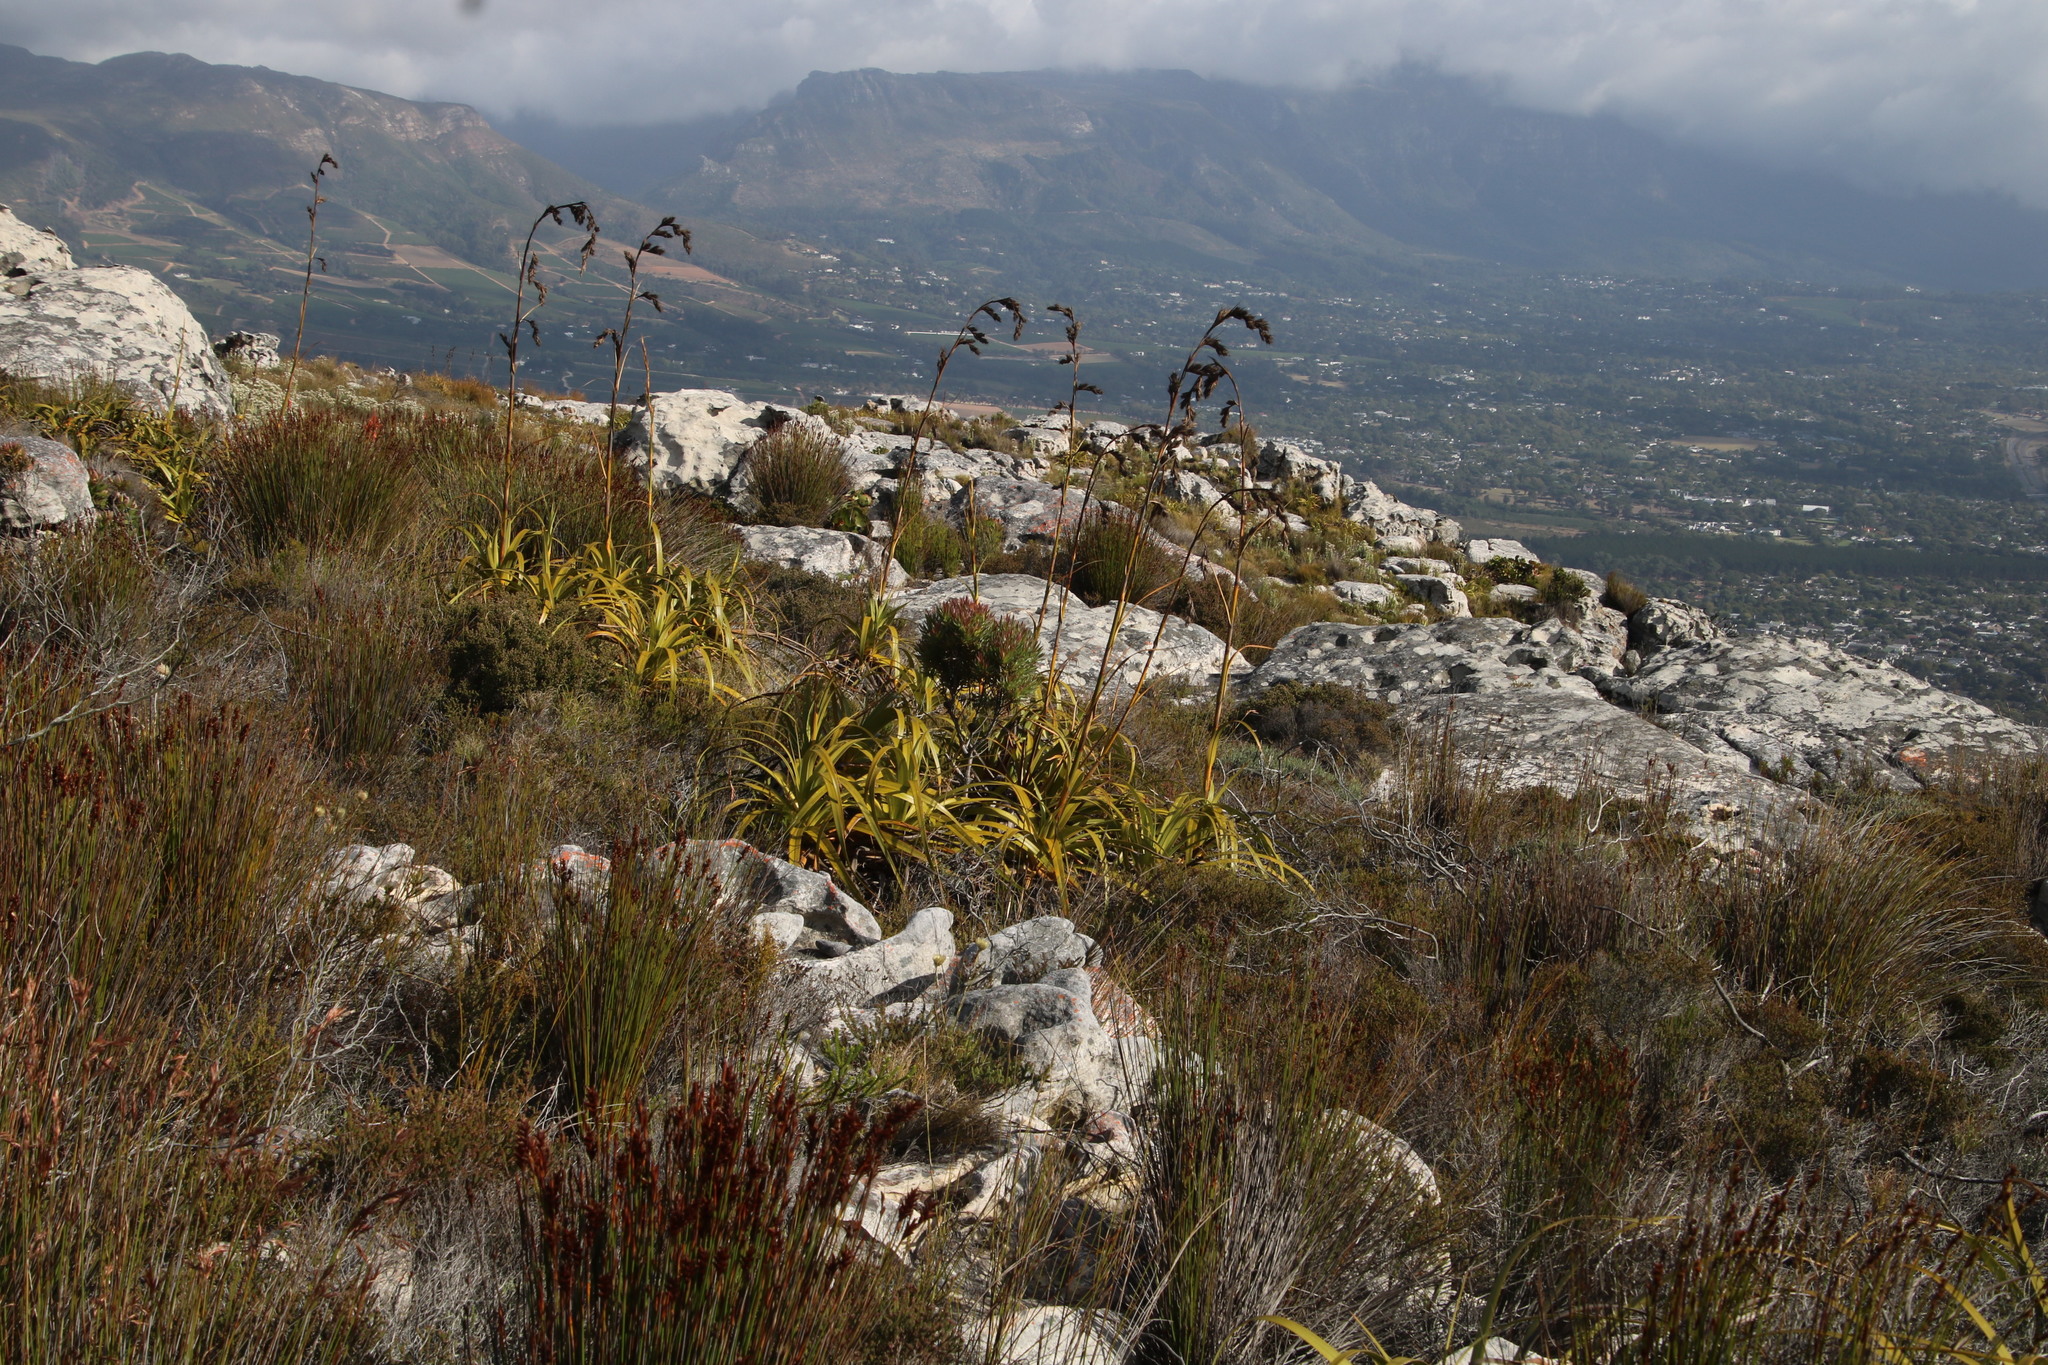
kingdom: Plantae
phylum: Tracheophyta
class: Liliopsida
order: Poales
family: Cyperaceae
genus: Tetraria
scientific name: Tetraria thermalis
